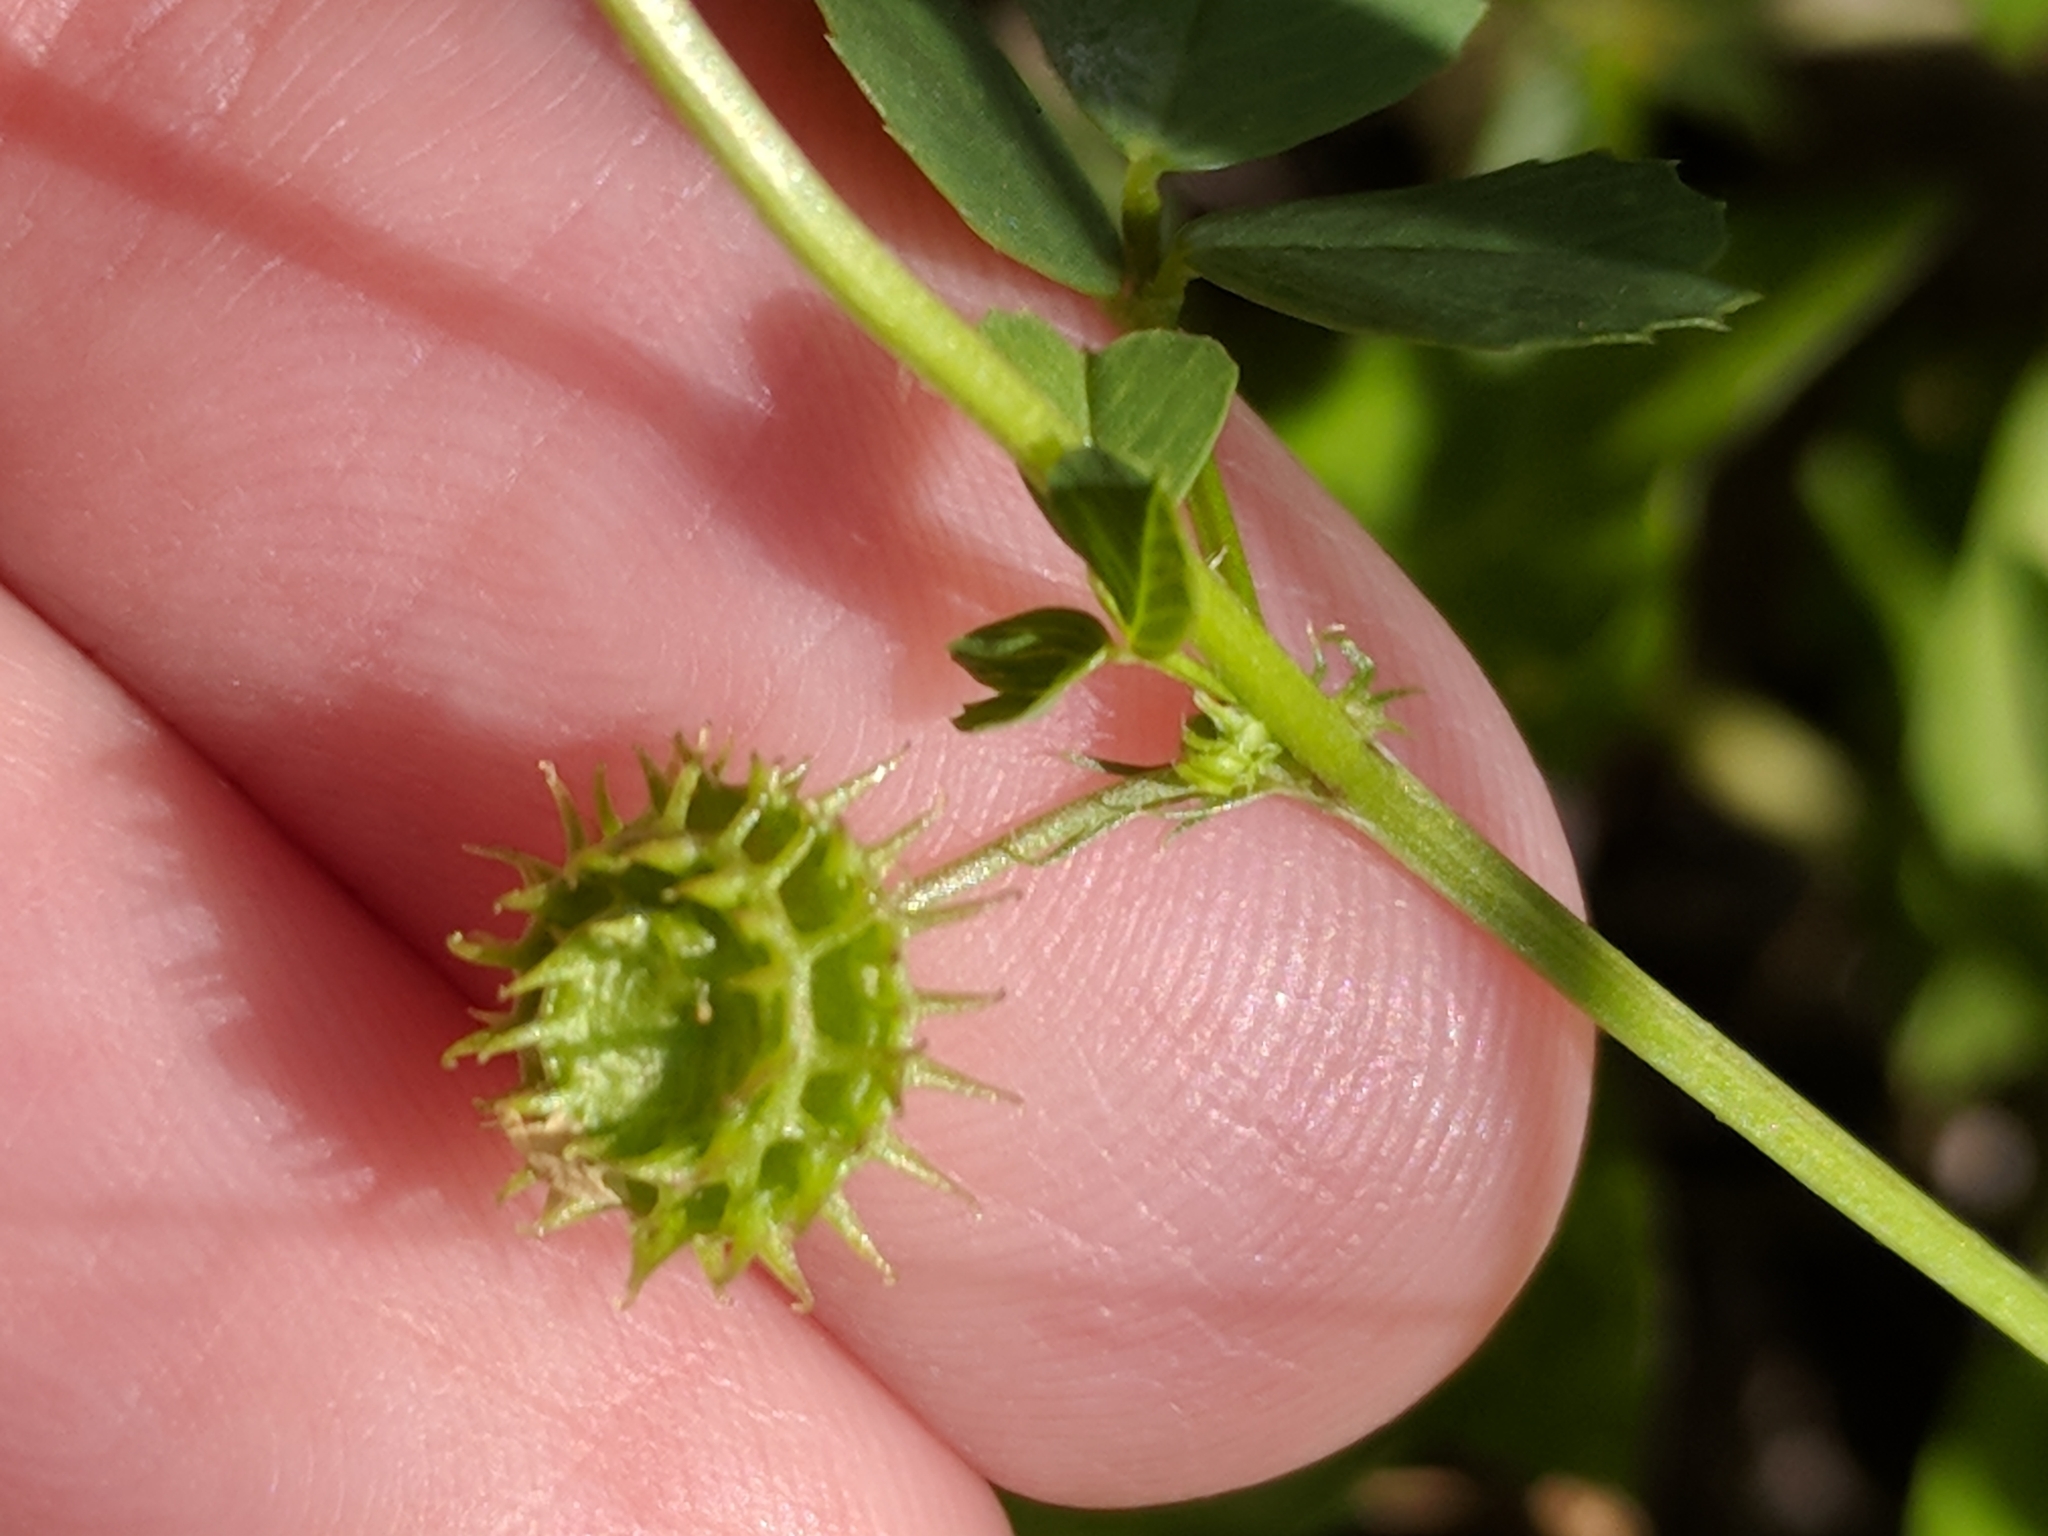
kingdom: Plantae
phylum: Tracheophyta
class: Magnoliopsida
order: Fabales
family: Fabaceae
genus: Medicago
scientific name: Medicago polymorpha
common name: Burclover
